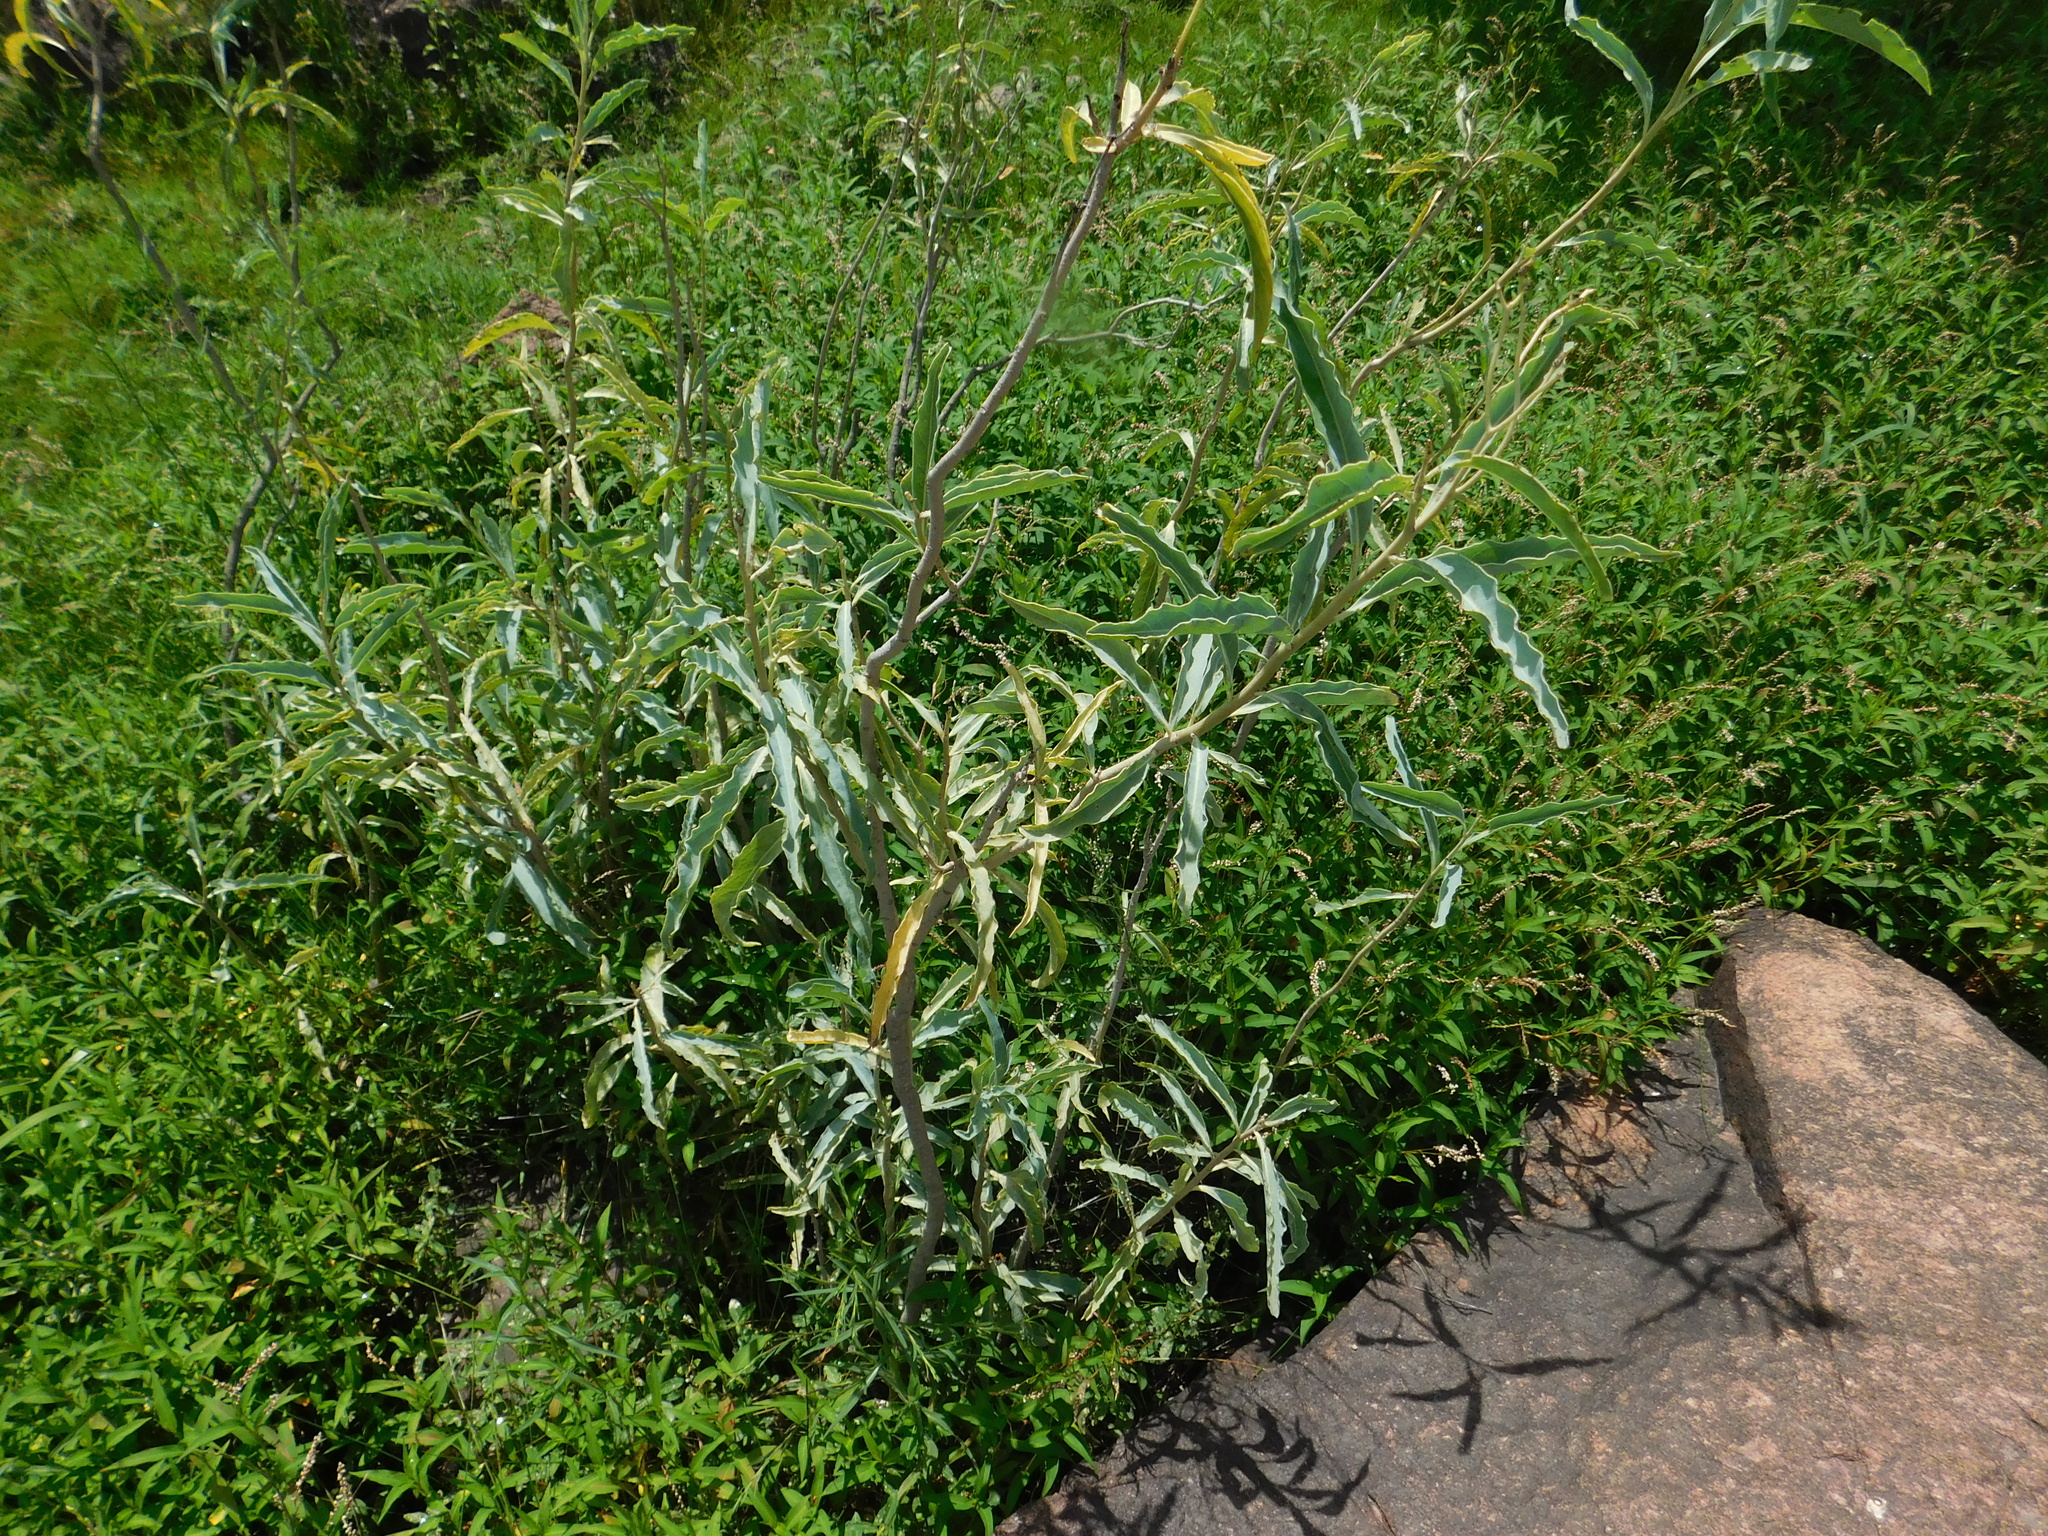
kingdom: Plantae
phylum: Tracheophyta
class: Magnoliopsida
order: Solanales
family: Solanaceae
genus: Solanum
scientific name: Solanum glaucophyllum
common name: Waxyleaf nightshade
